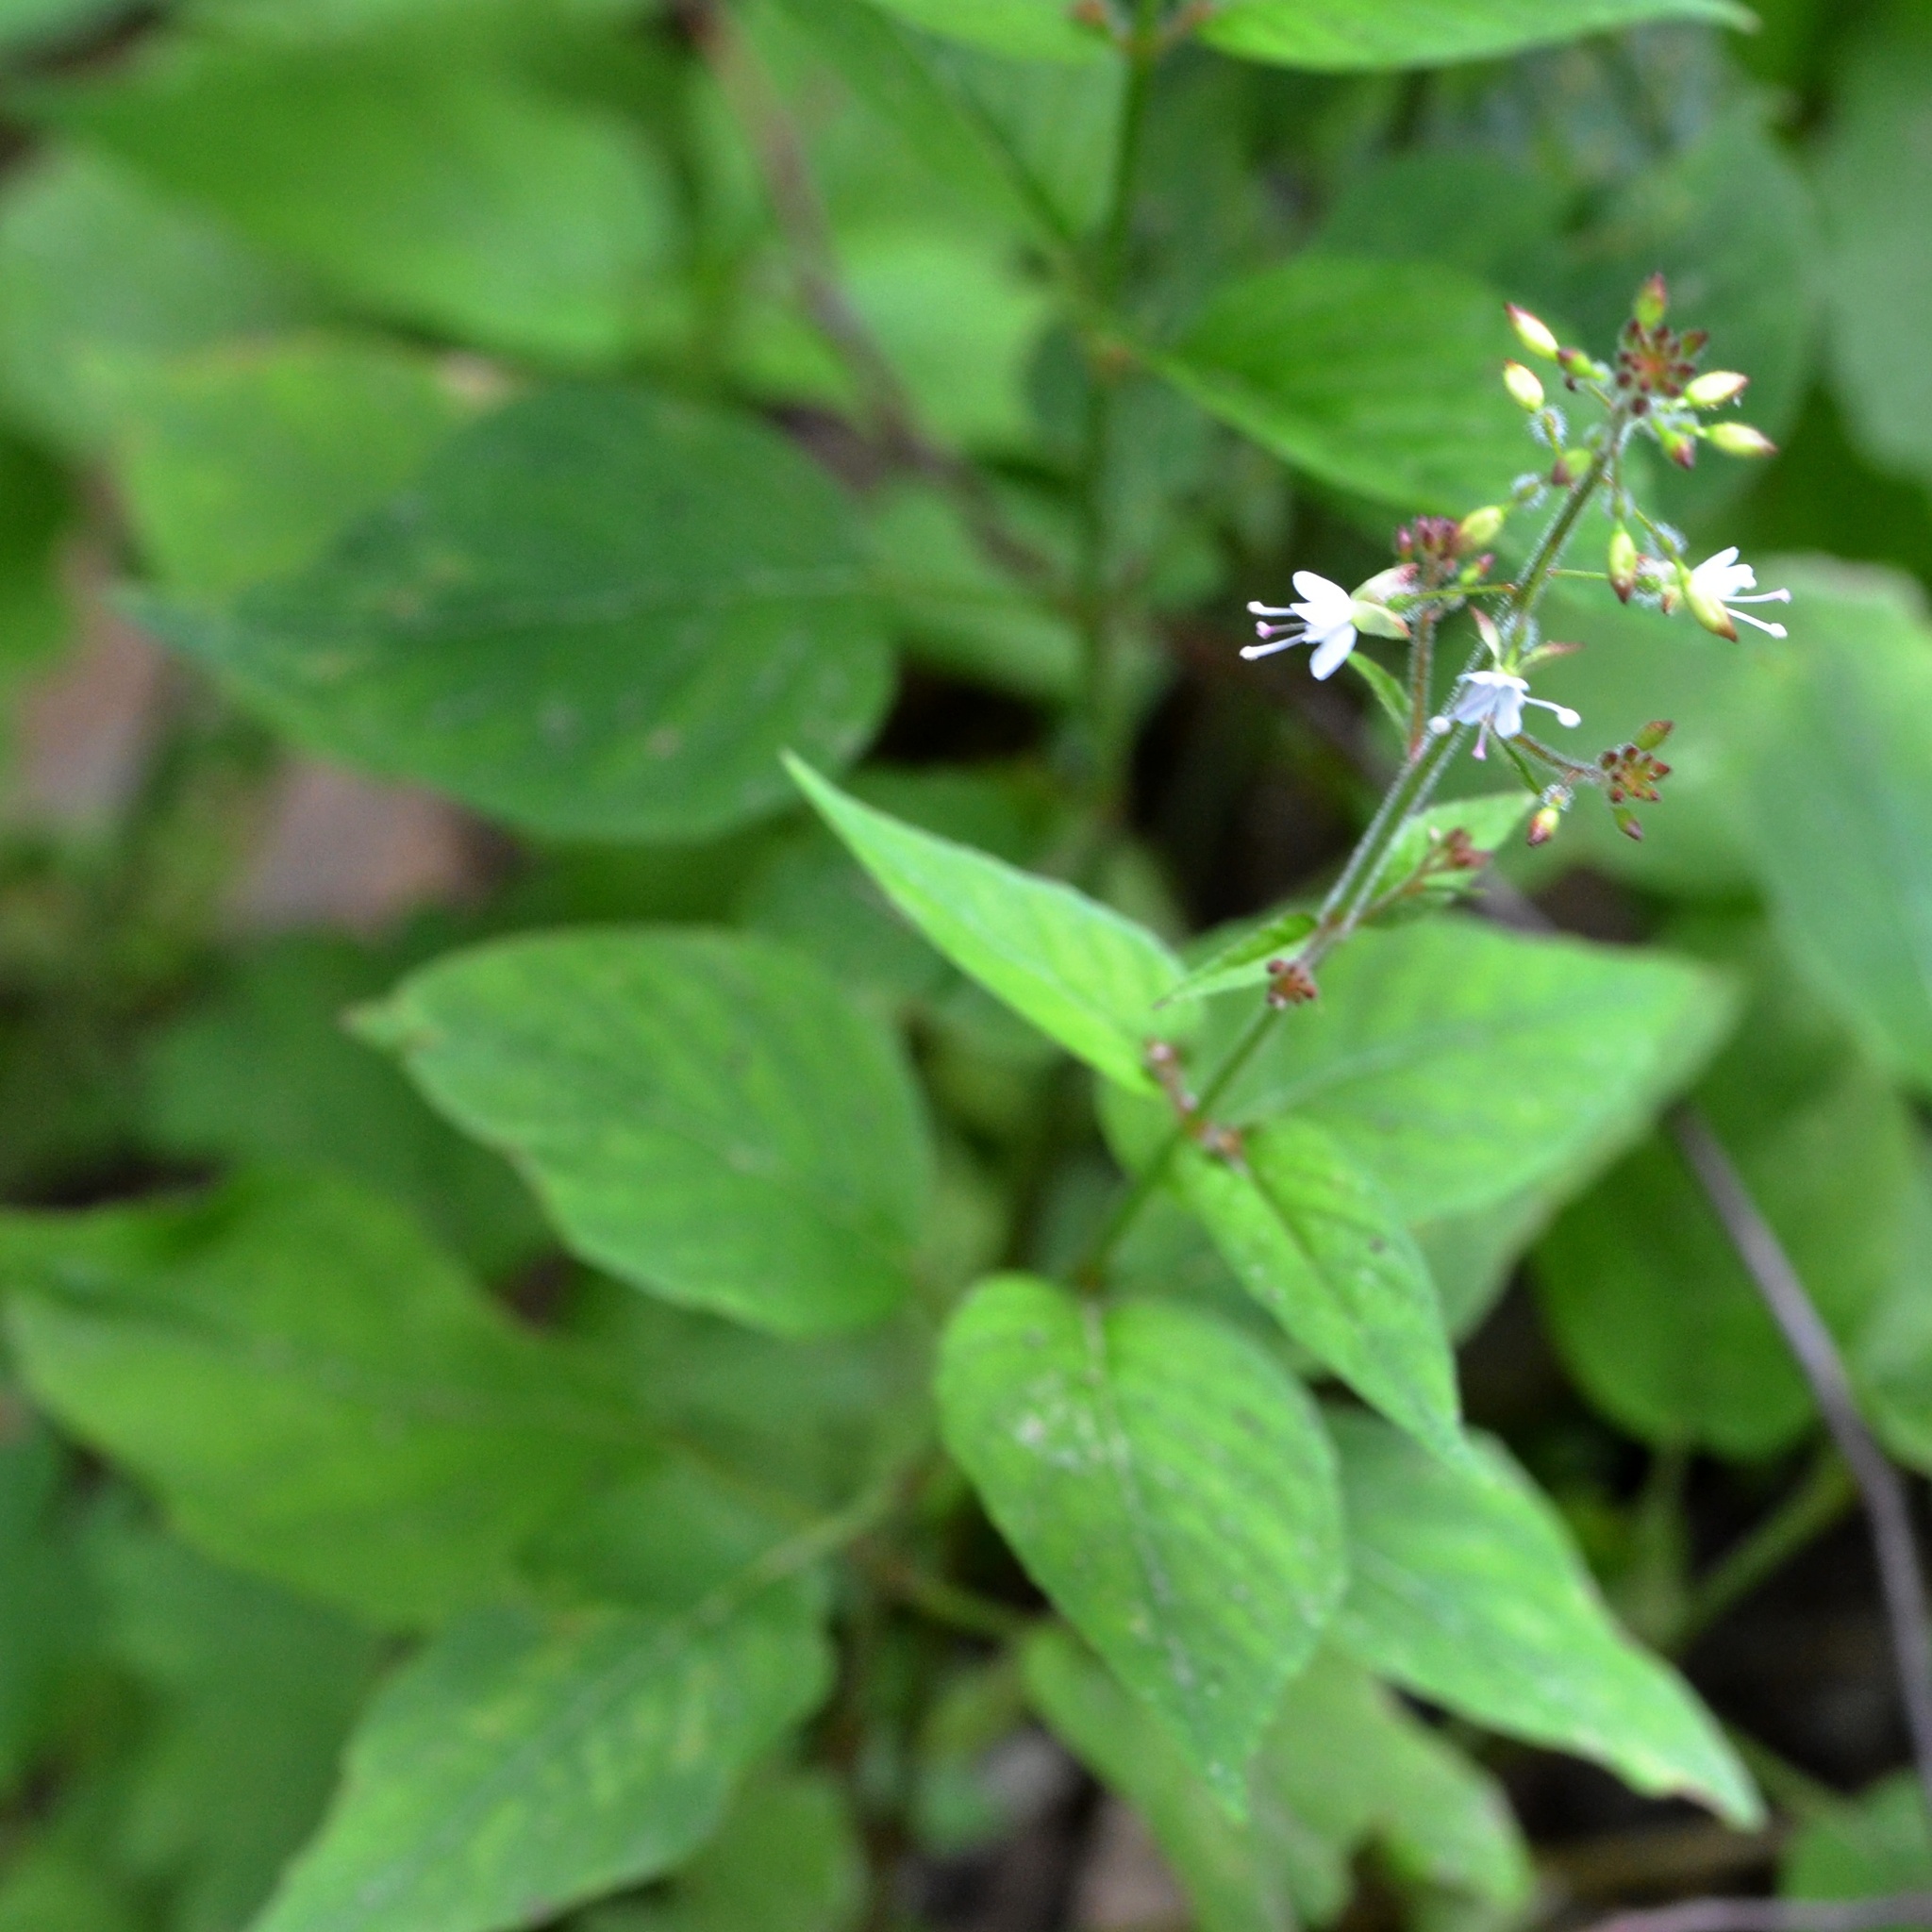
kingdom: Plantae
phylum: Tracheophyta
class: Magnoliopsida
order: Myrtales
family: Onagraceae
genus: Circaea
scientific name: Circaea lutetiana
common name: Enchanter's-nightshade
